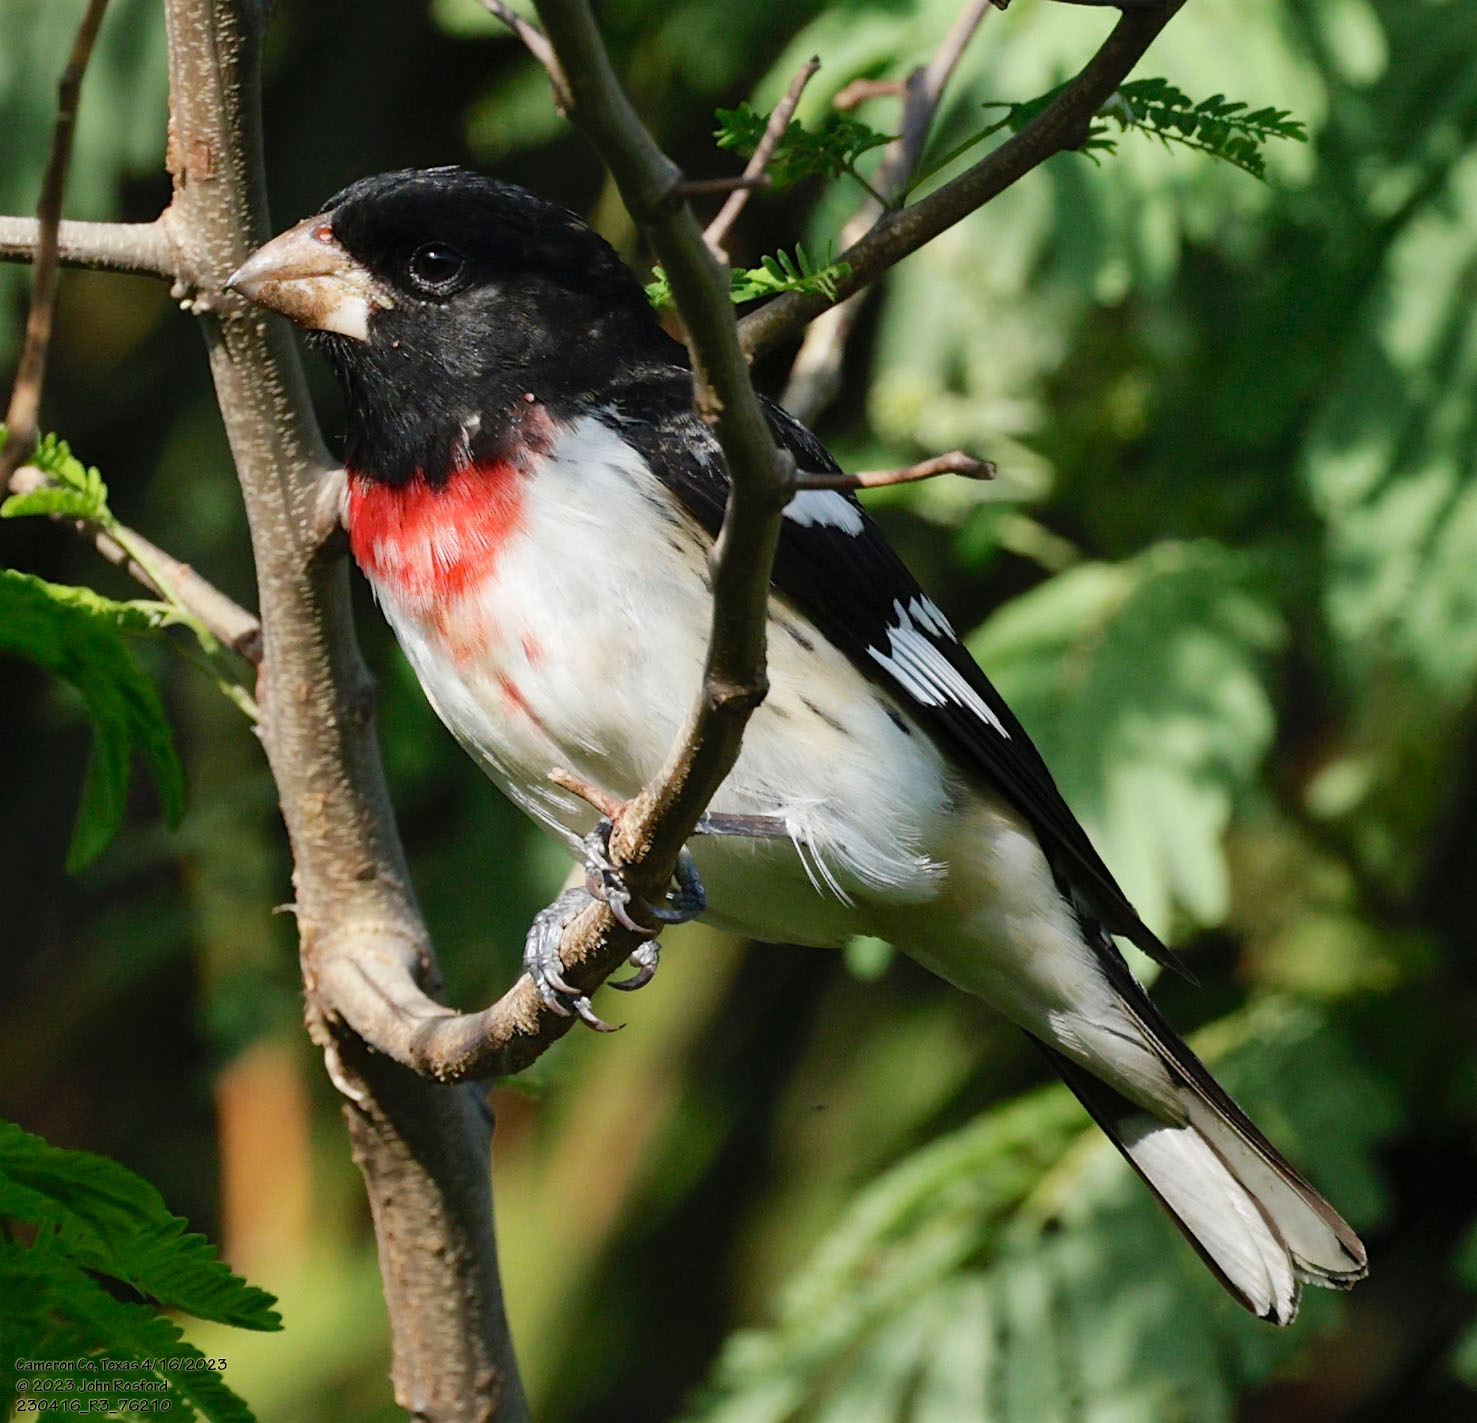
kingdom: Animalia
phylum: Chordata
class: Aves
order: Passeriformes
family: Cardinalidae
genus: Pheucticus
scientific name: Pheucticus ludovicianus
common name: Rose-breasted grosbeak
